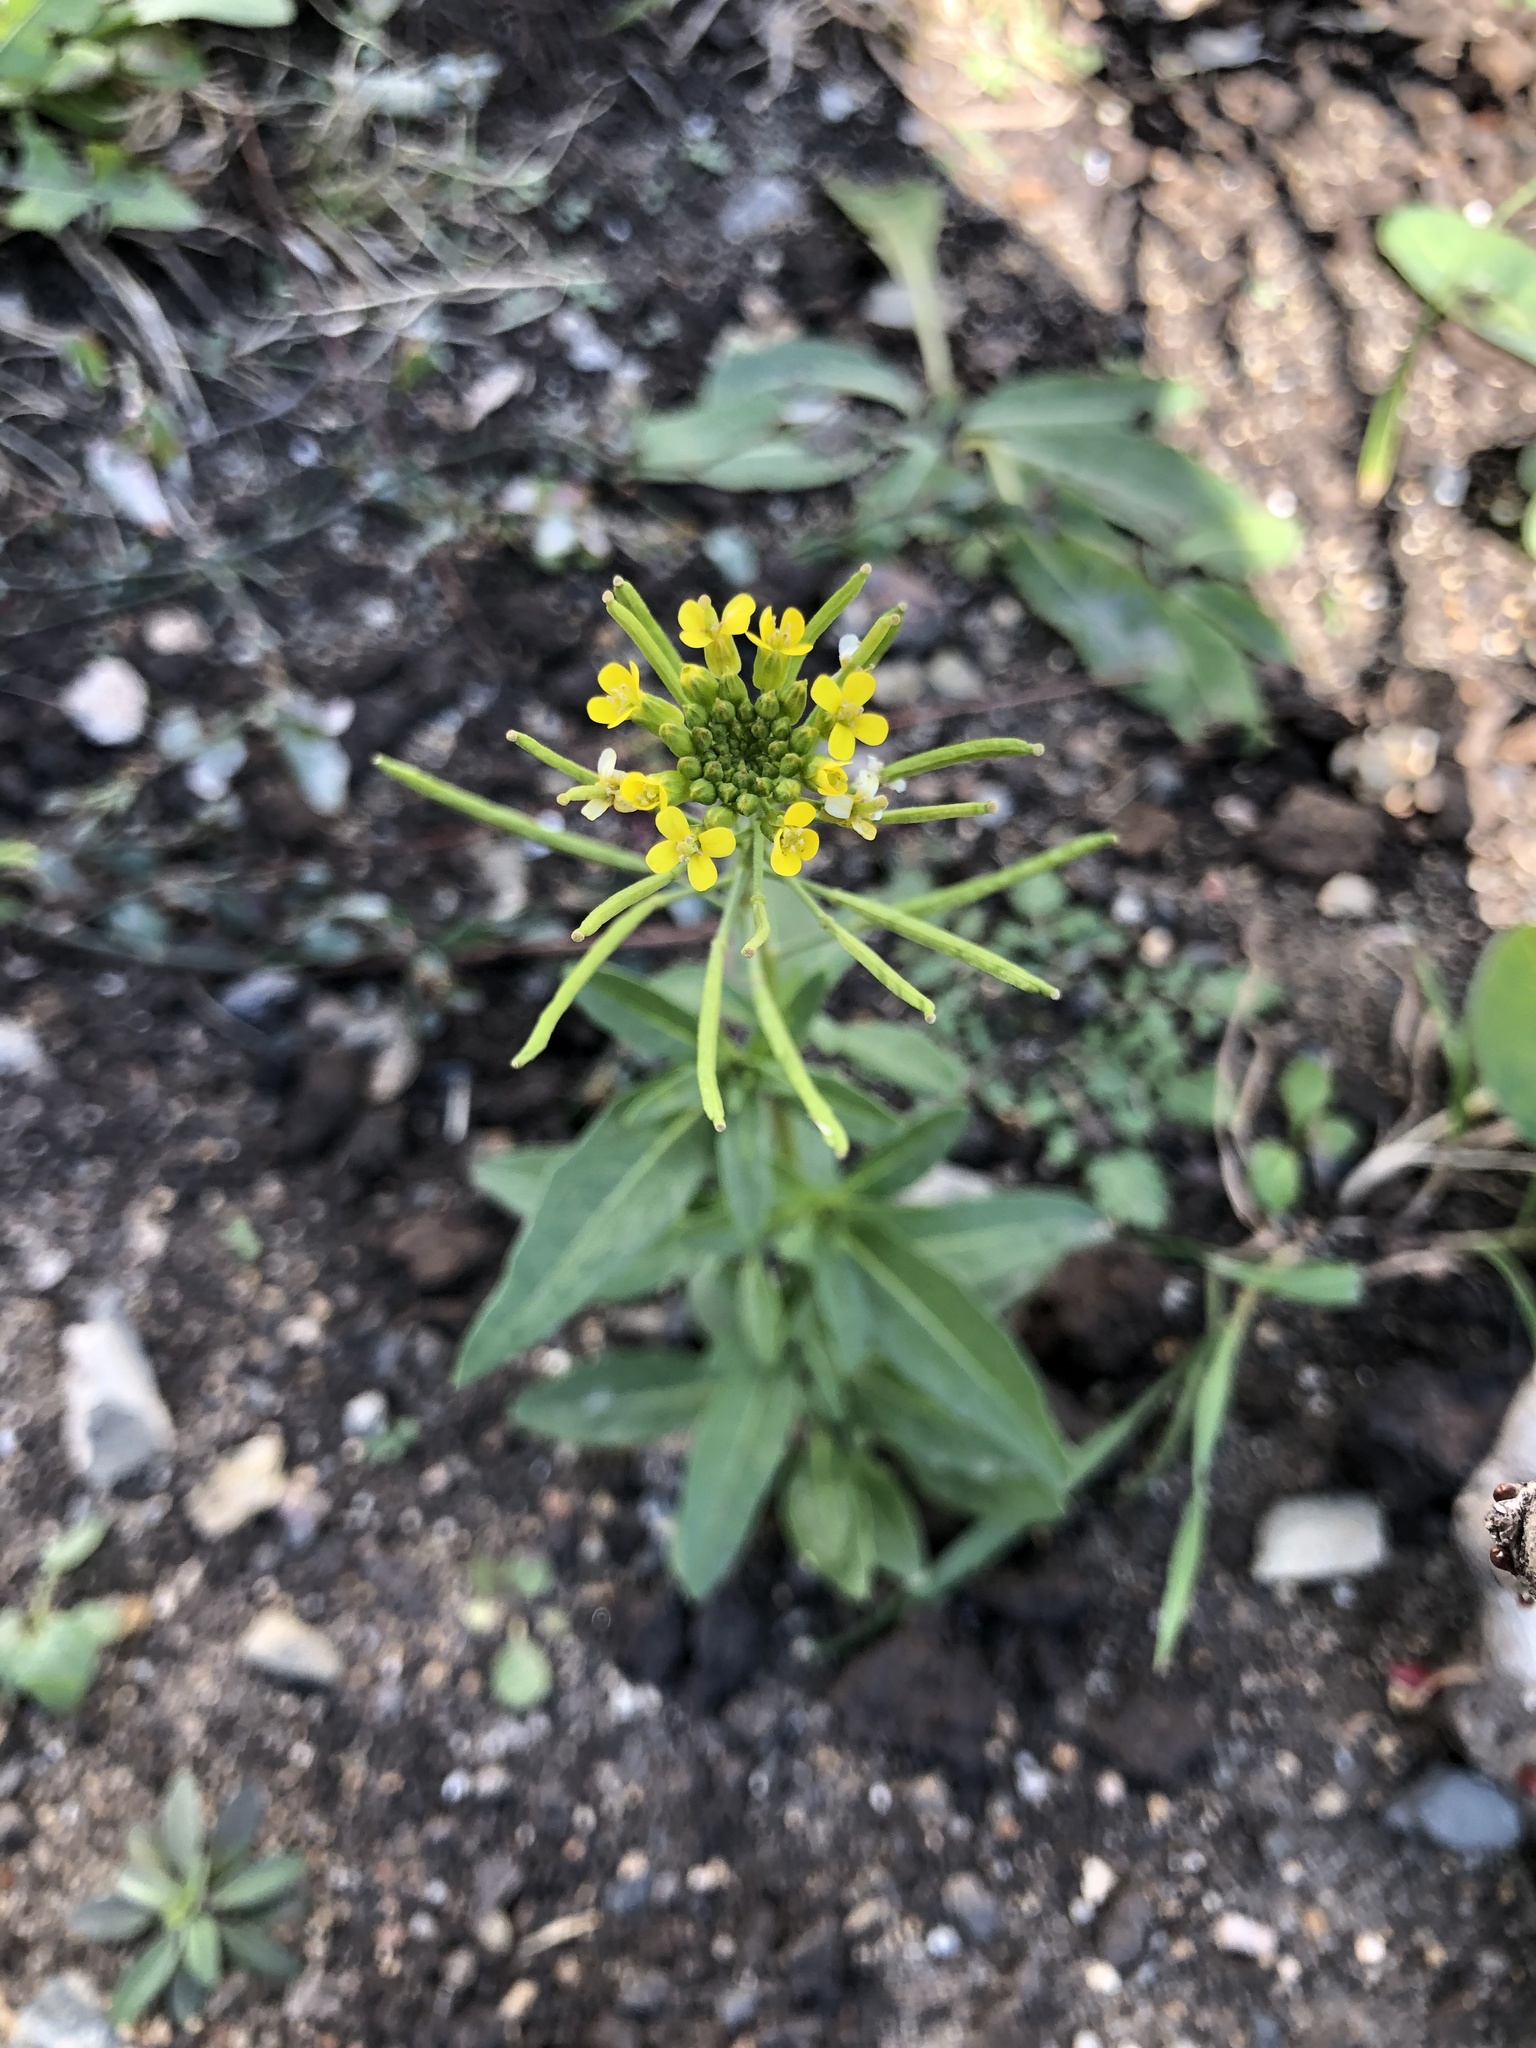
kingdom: Plantae
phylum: Tracheophyta
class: Magnoliopsida
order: Brassicales
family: Brassicaceae
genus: Erysimum
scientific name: Erysimum cheiranthoides
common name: Treacle mustard
